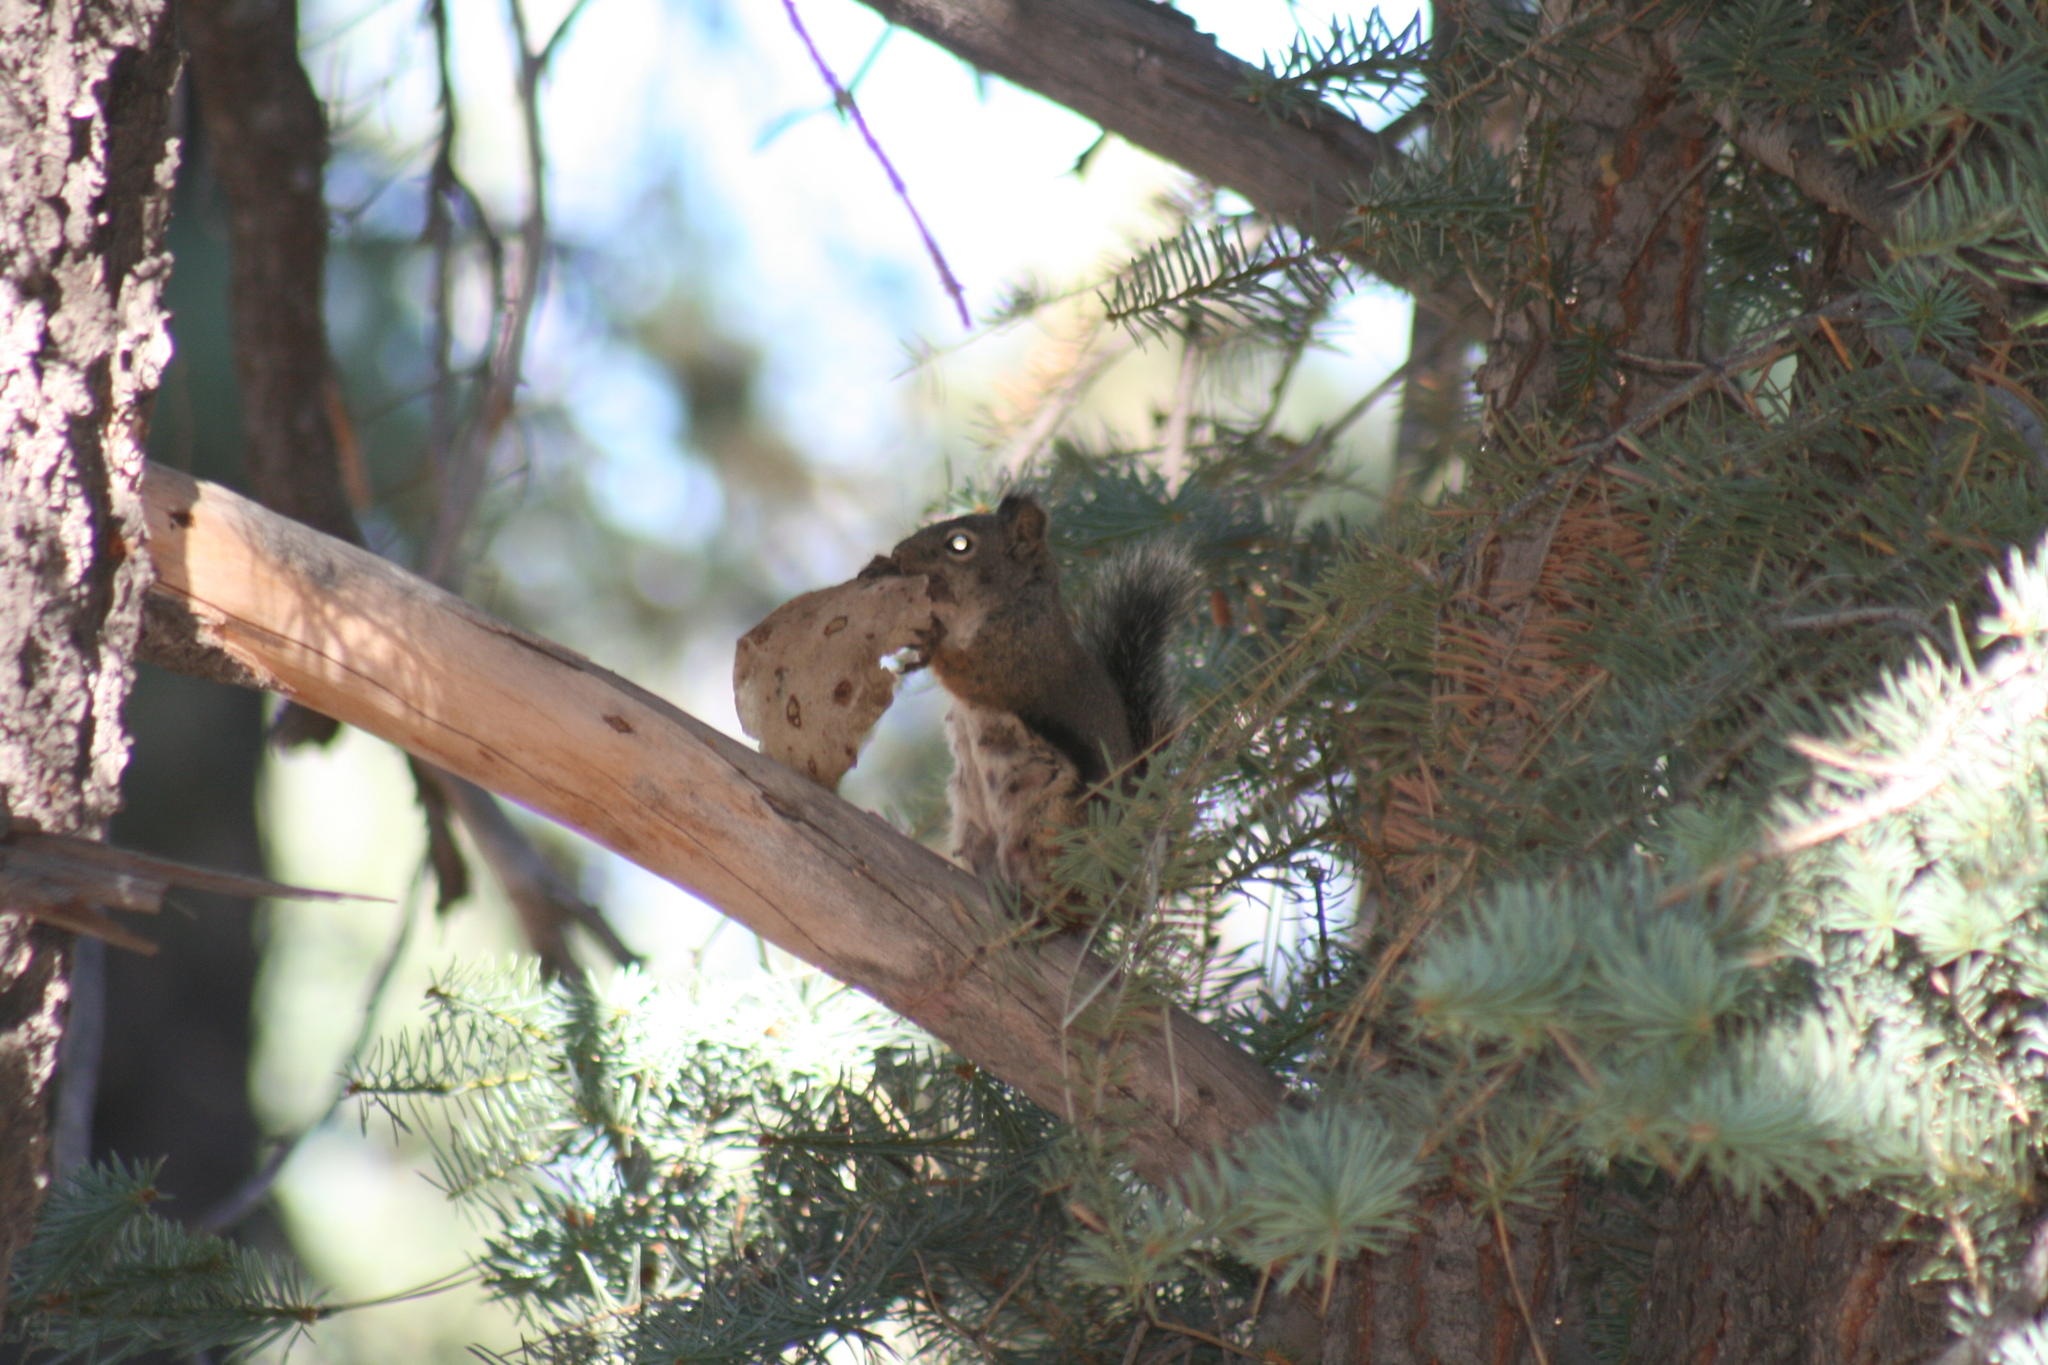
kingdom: Animalia
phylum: Chordata
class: Mammalia
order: Rodentia
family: Sciuridae
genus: Tamiasciurus
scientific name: Tamiasciurus douglasii
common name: Douglas's squirrel
